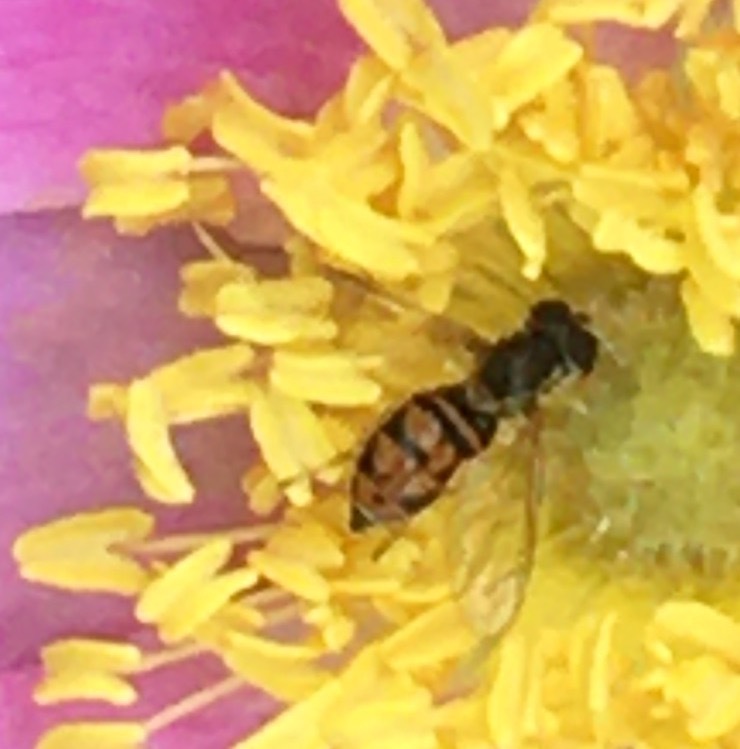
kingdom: Animalia
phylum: Arthropoda
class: Insecta
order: Diptera
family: Syrphidae
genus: Toxomerus
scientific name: Toxomerus marginatus
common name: Syrphid fly
